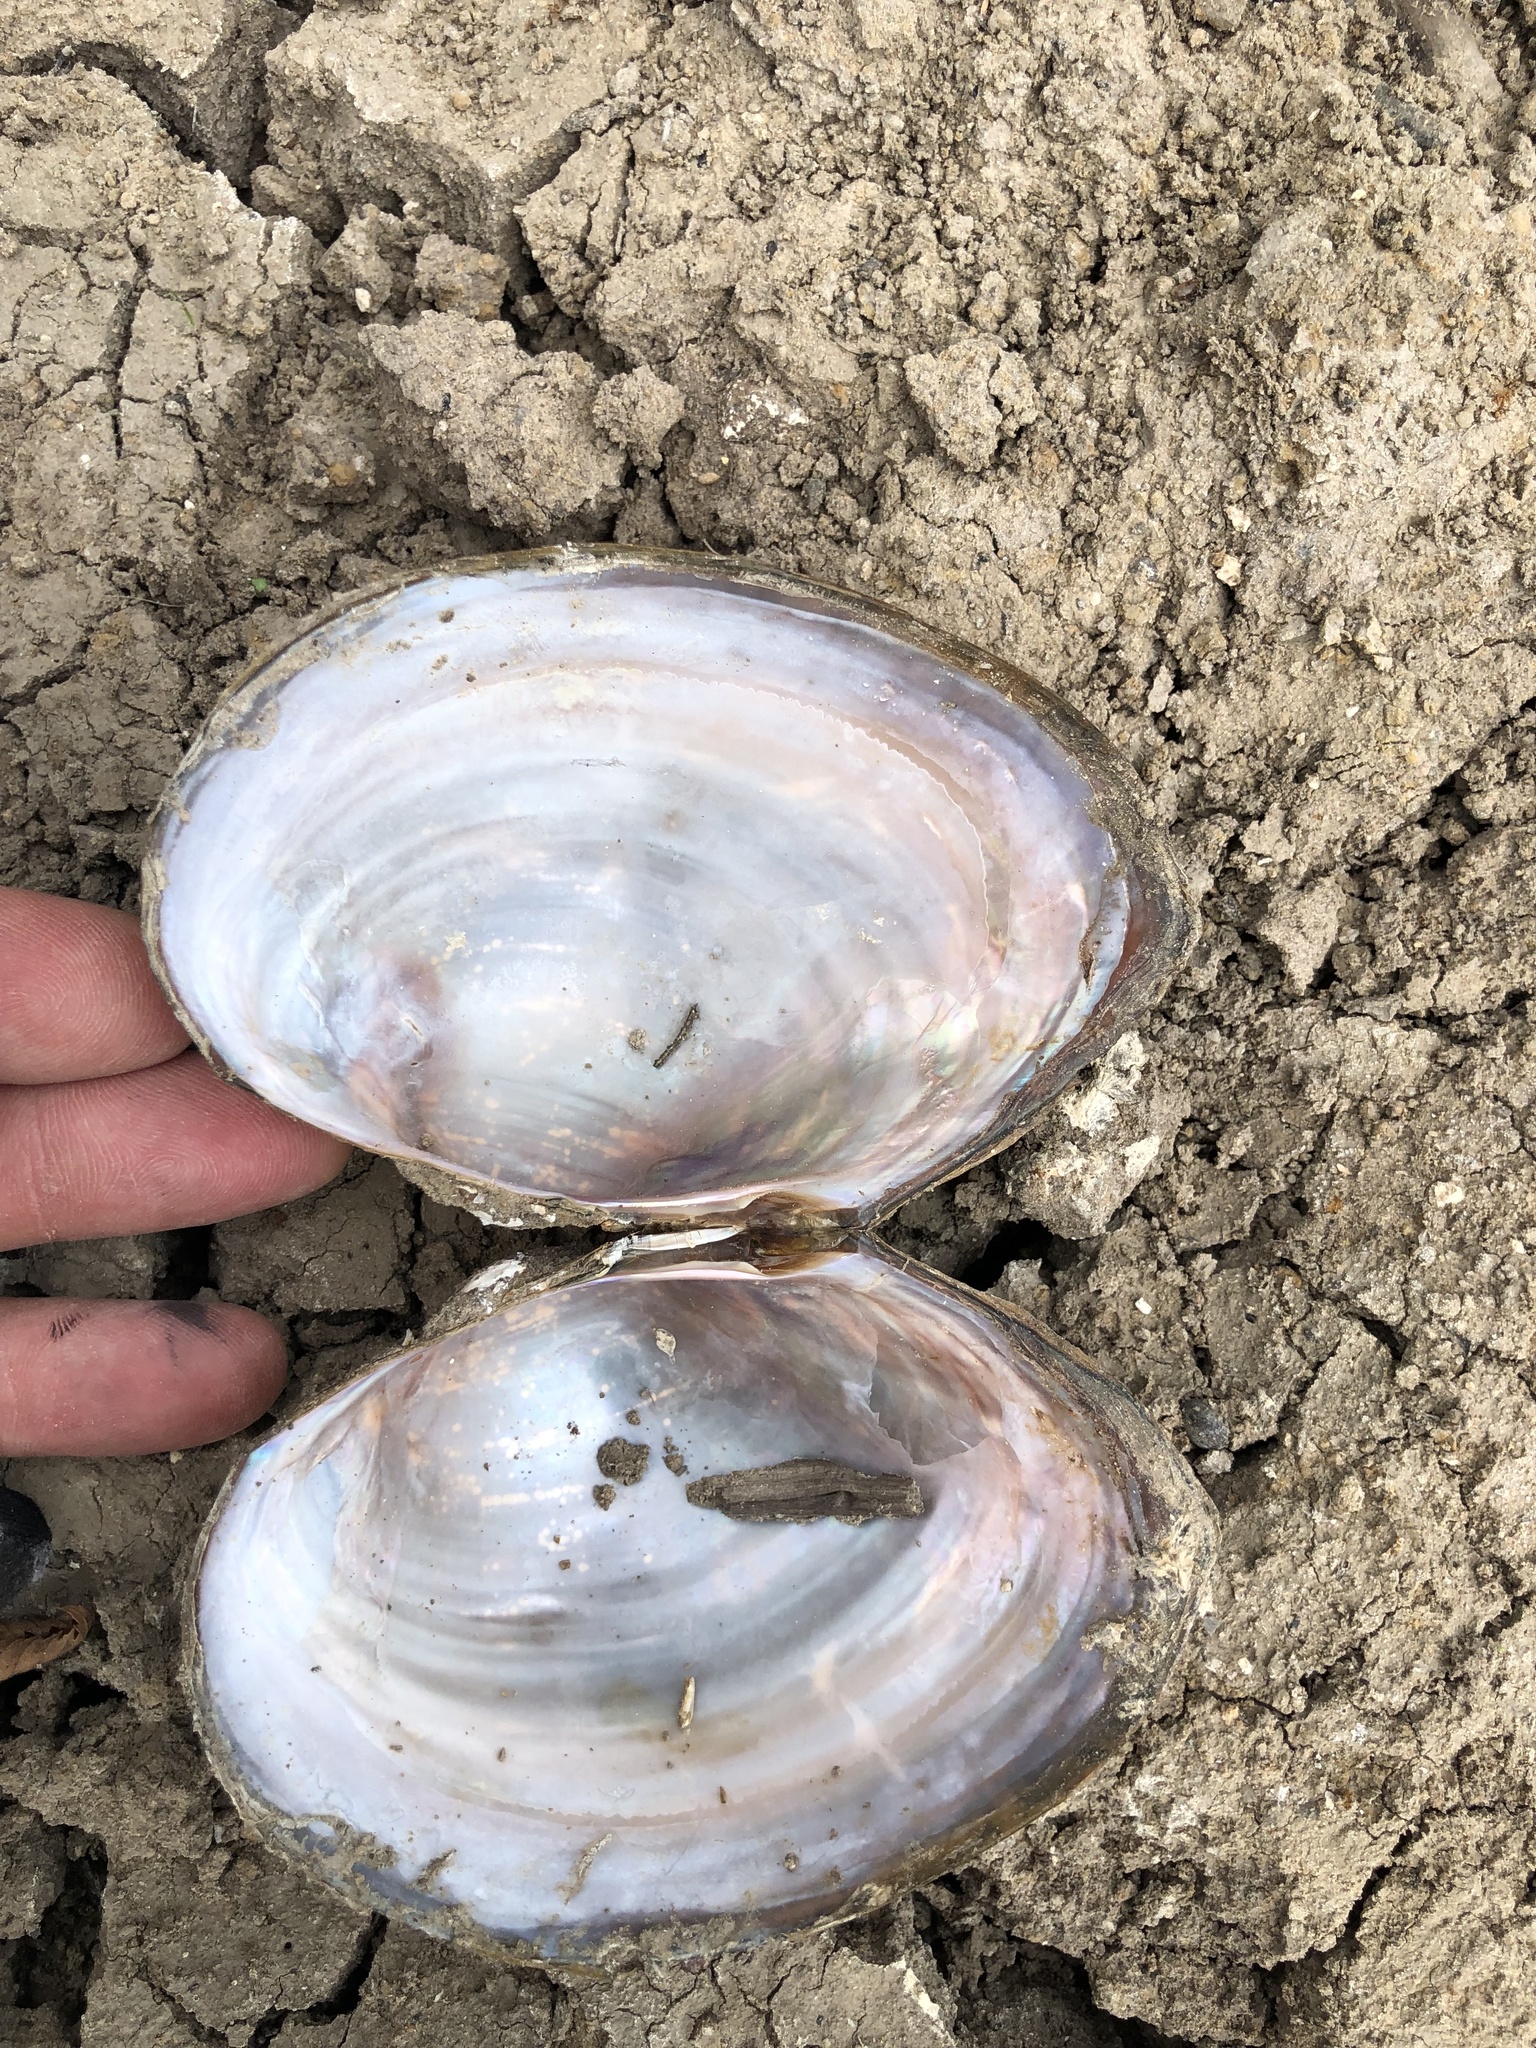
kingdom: Animalia
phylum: Mollusca
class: Bivalvia
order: Unionida
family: Unionidae
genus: Pyganodon
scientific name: Pyganodon grandis
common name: Giant floater
